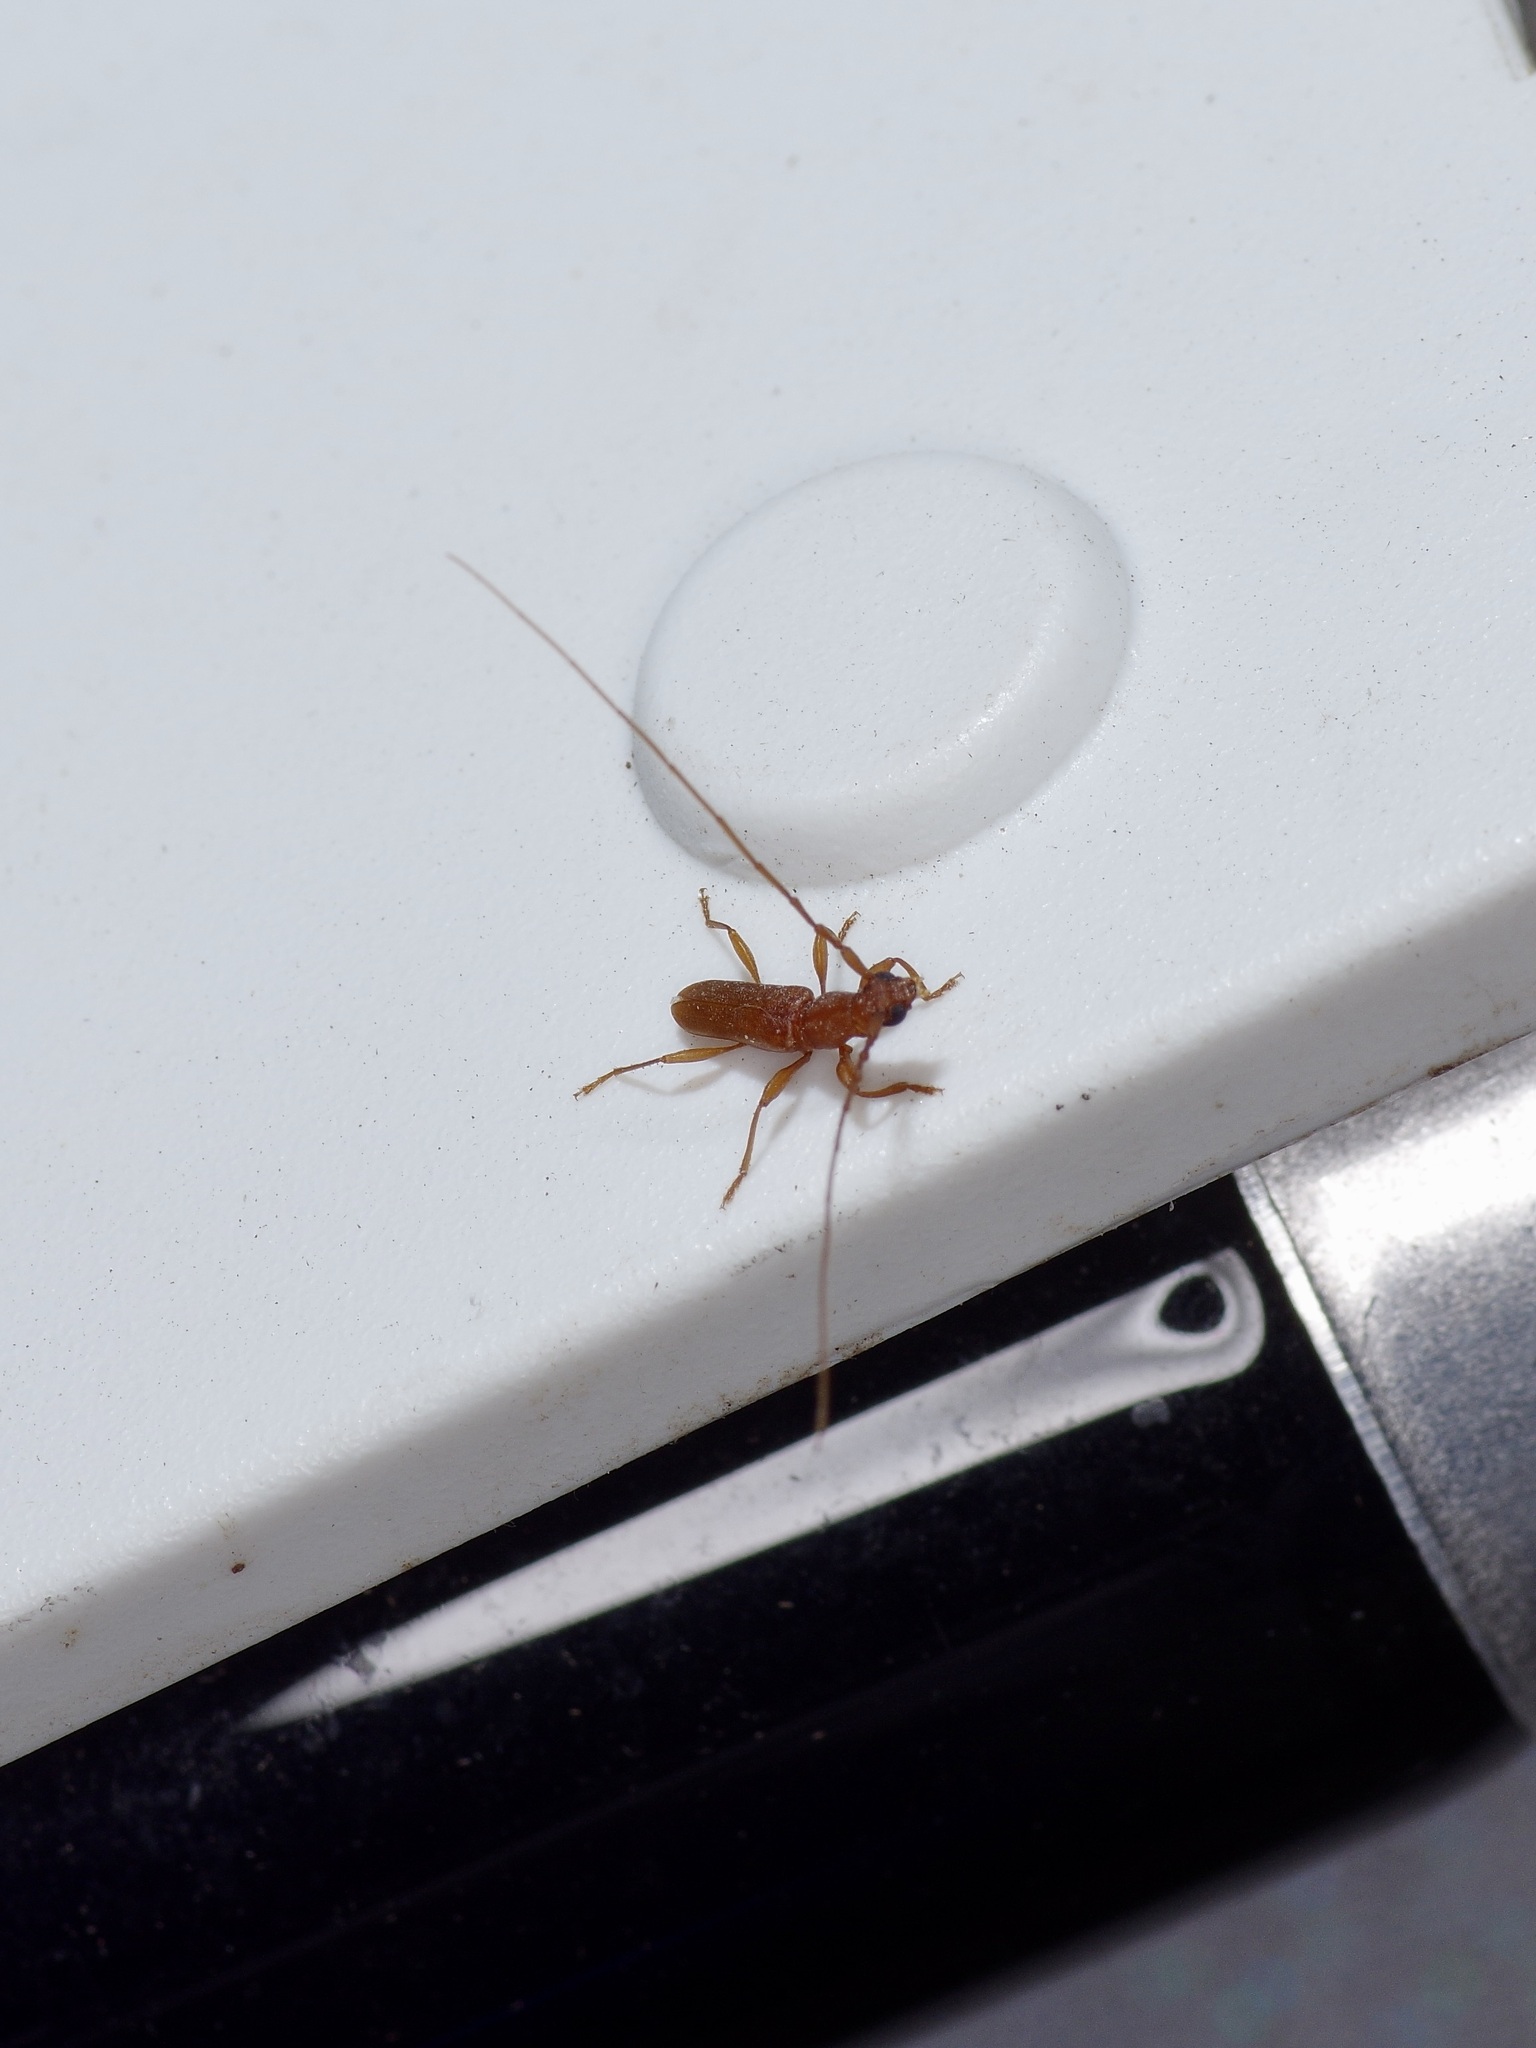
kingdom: Animalia
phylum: Arthropoda
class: Insecta
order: Coleoptera
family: Cerambycidae
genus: Hypexilis
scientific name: Hypexilis pallida
